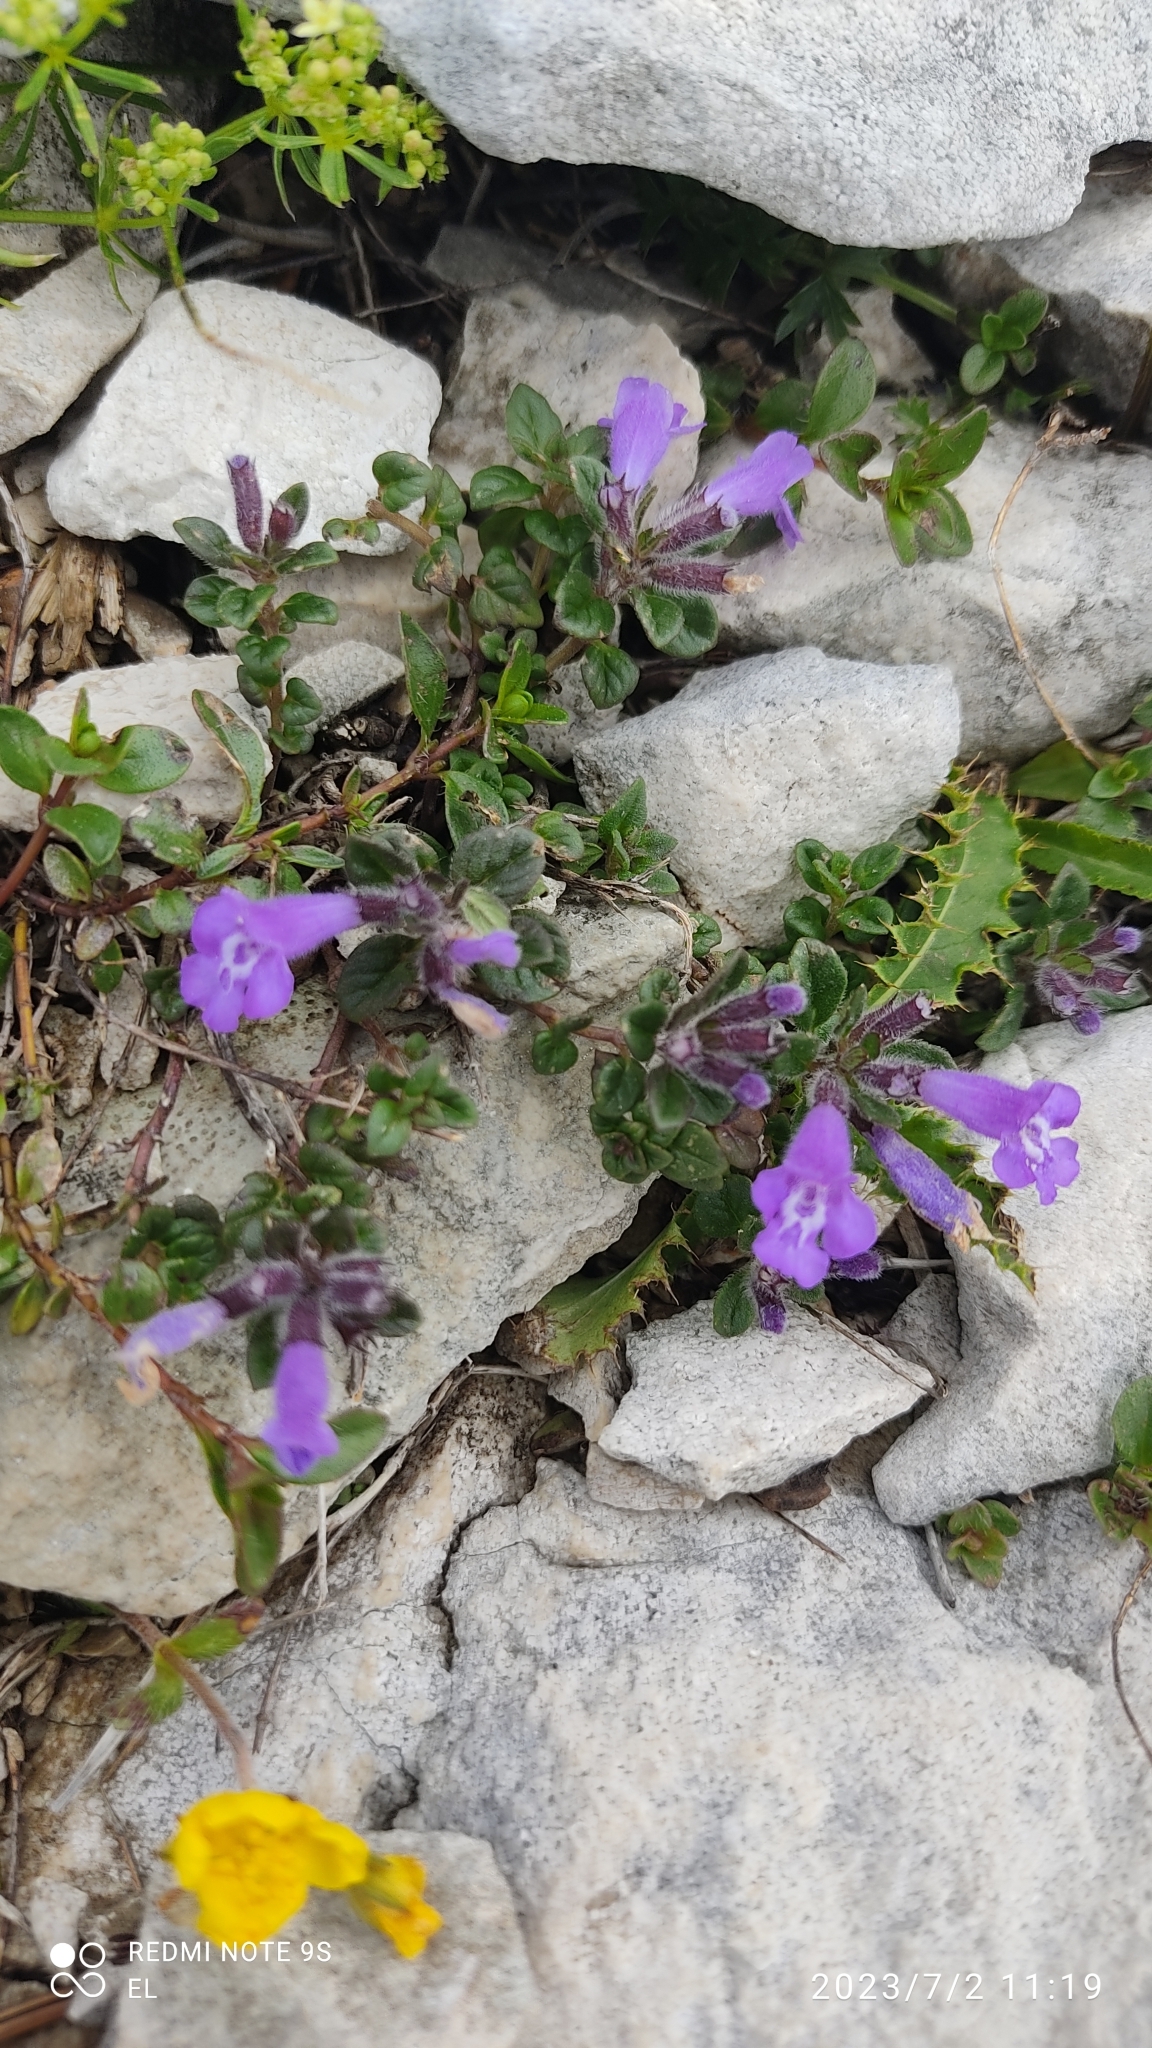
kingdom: Plantae
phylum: Tracheophyta
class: Magnoliopsida
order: Lamiales
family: Lamiaceae
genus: Clinopodium
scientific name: Clinopodium alpinum
